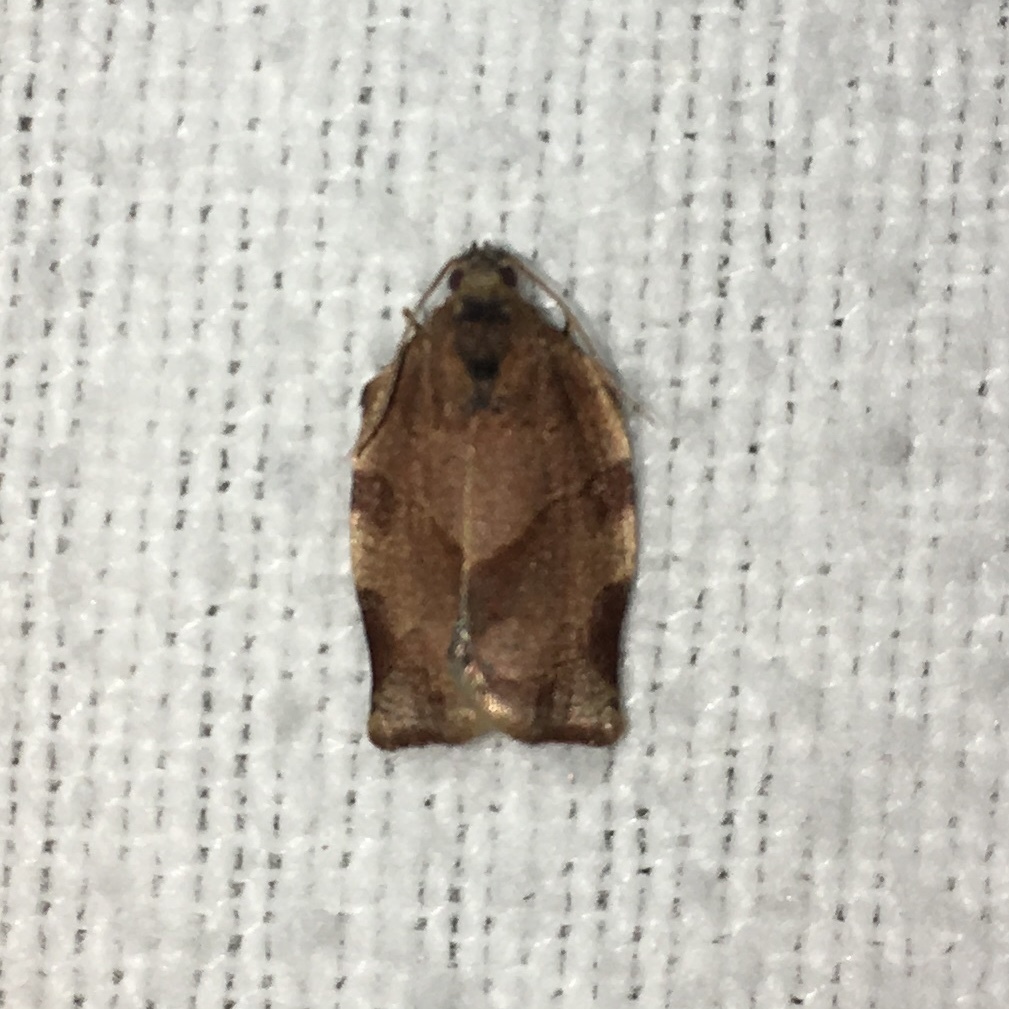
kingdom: Animalia
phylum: Arthropoda
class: Insecta
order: Lepidoptera
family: Tortricidae
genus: Choristoneura
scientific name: Choristoneura rosaceana
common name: Oblique-banded leafroller moth
